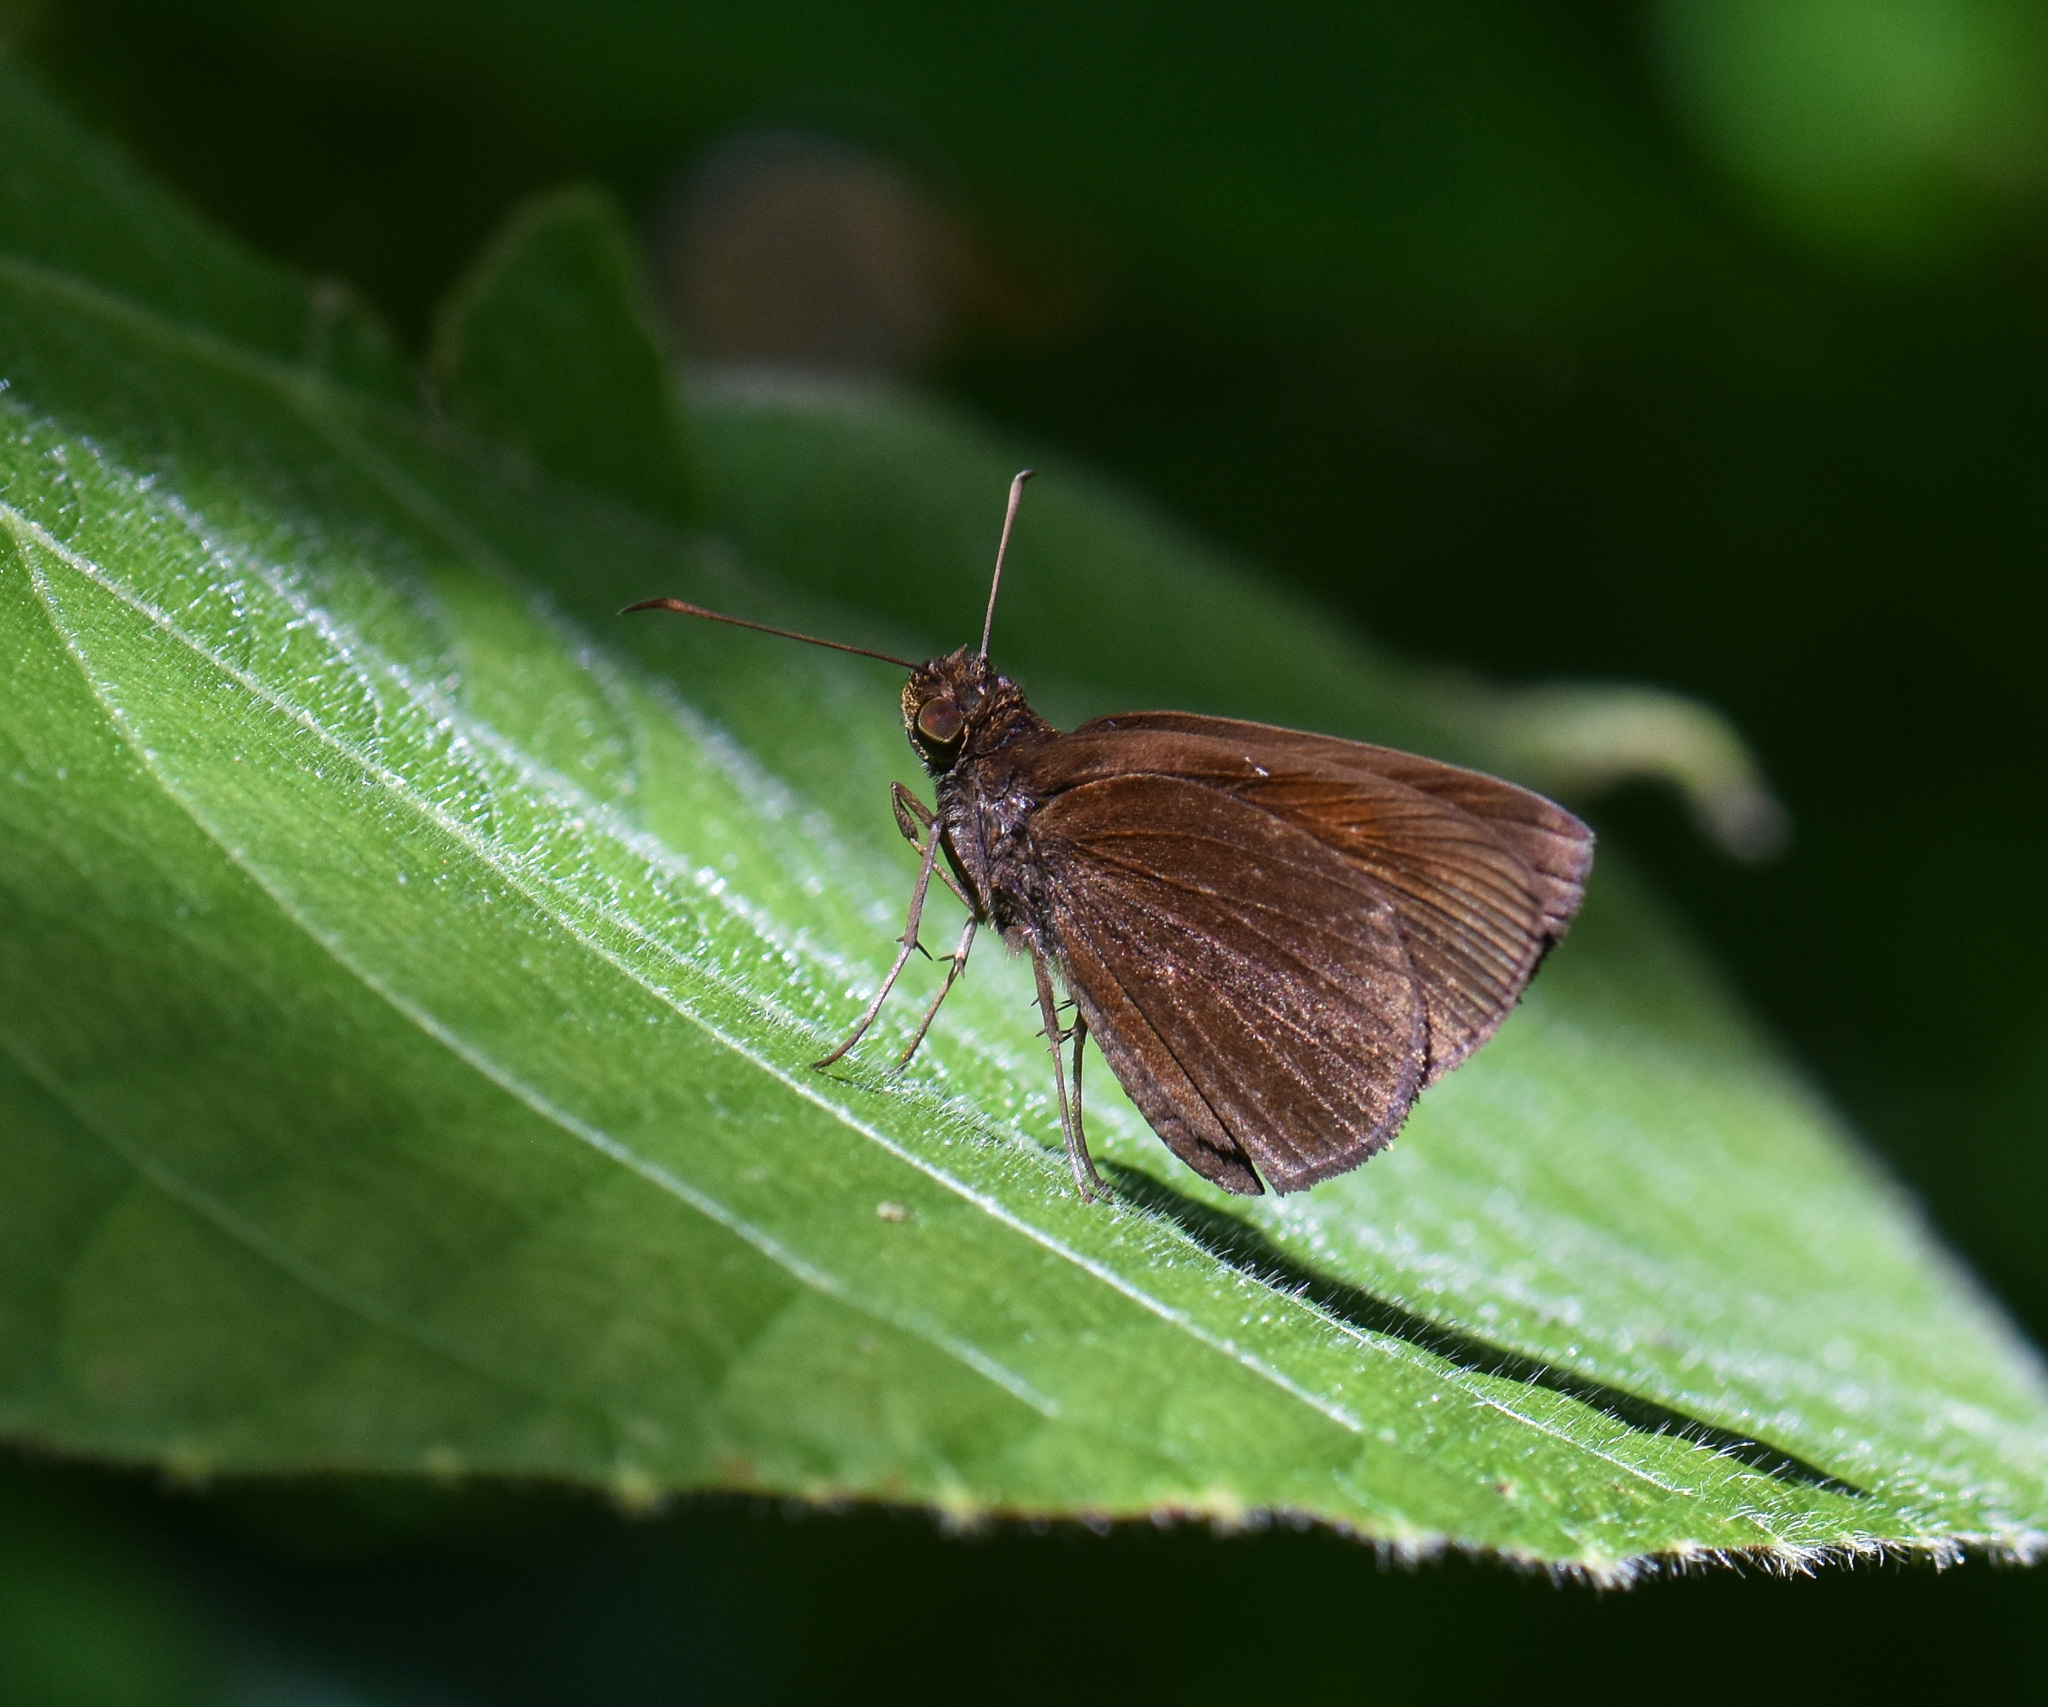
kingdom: Animalia
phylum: Arthropoda
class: Insecta
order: Lepidoptera
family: Hesperiidae
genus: Koruthaialos
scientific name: Koruthaialos butleri
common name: Dark velvet bob
